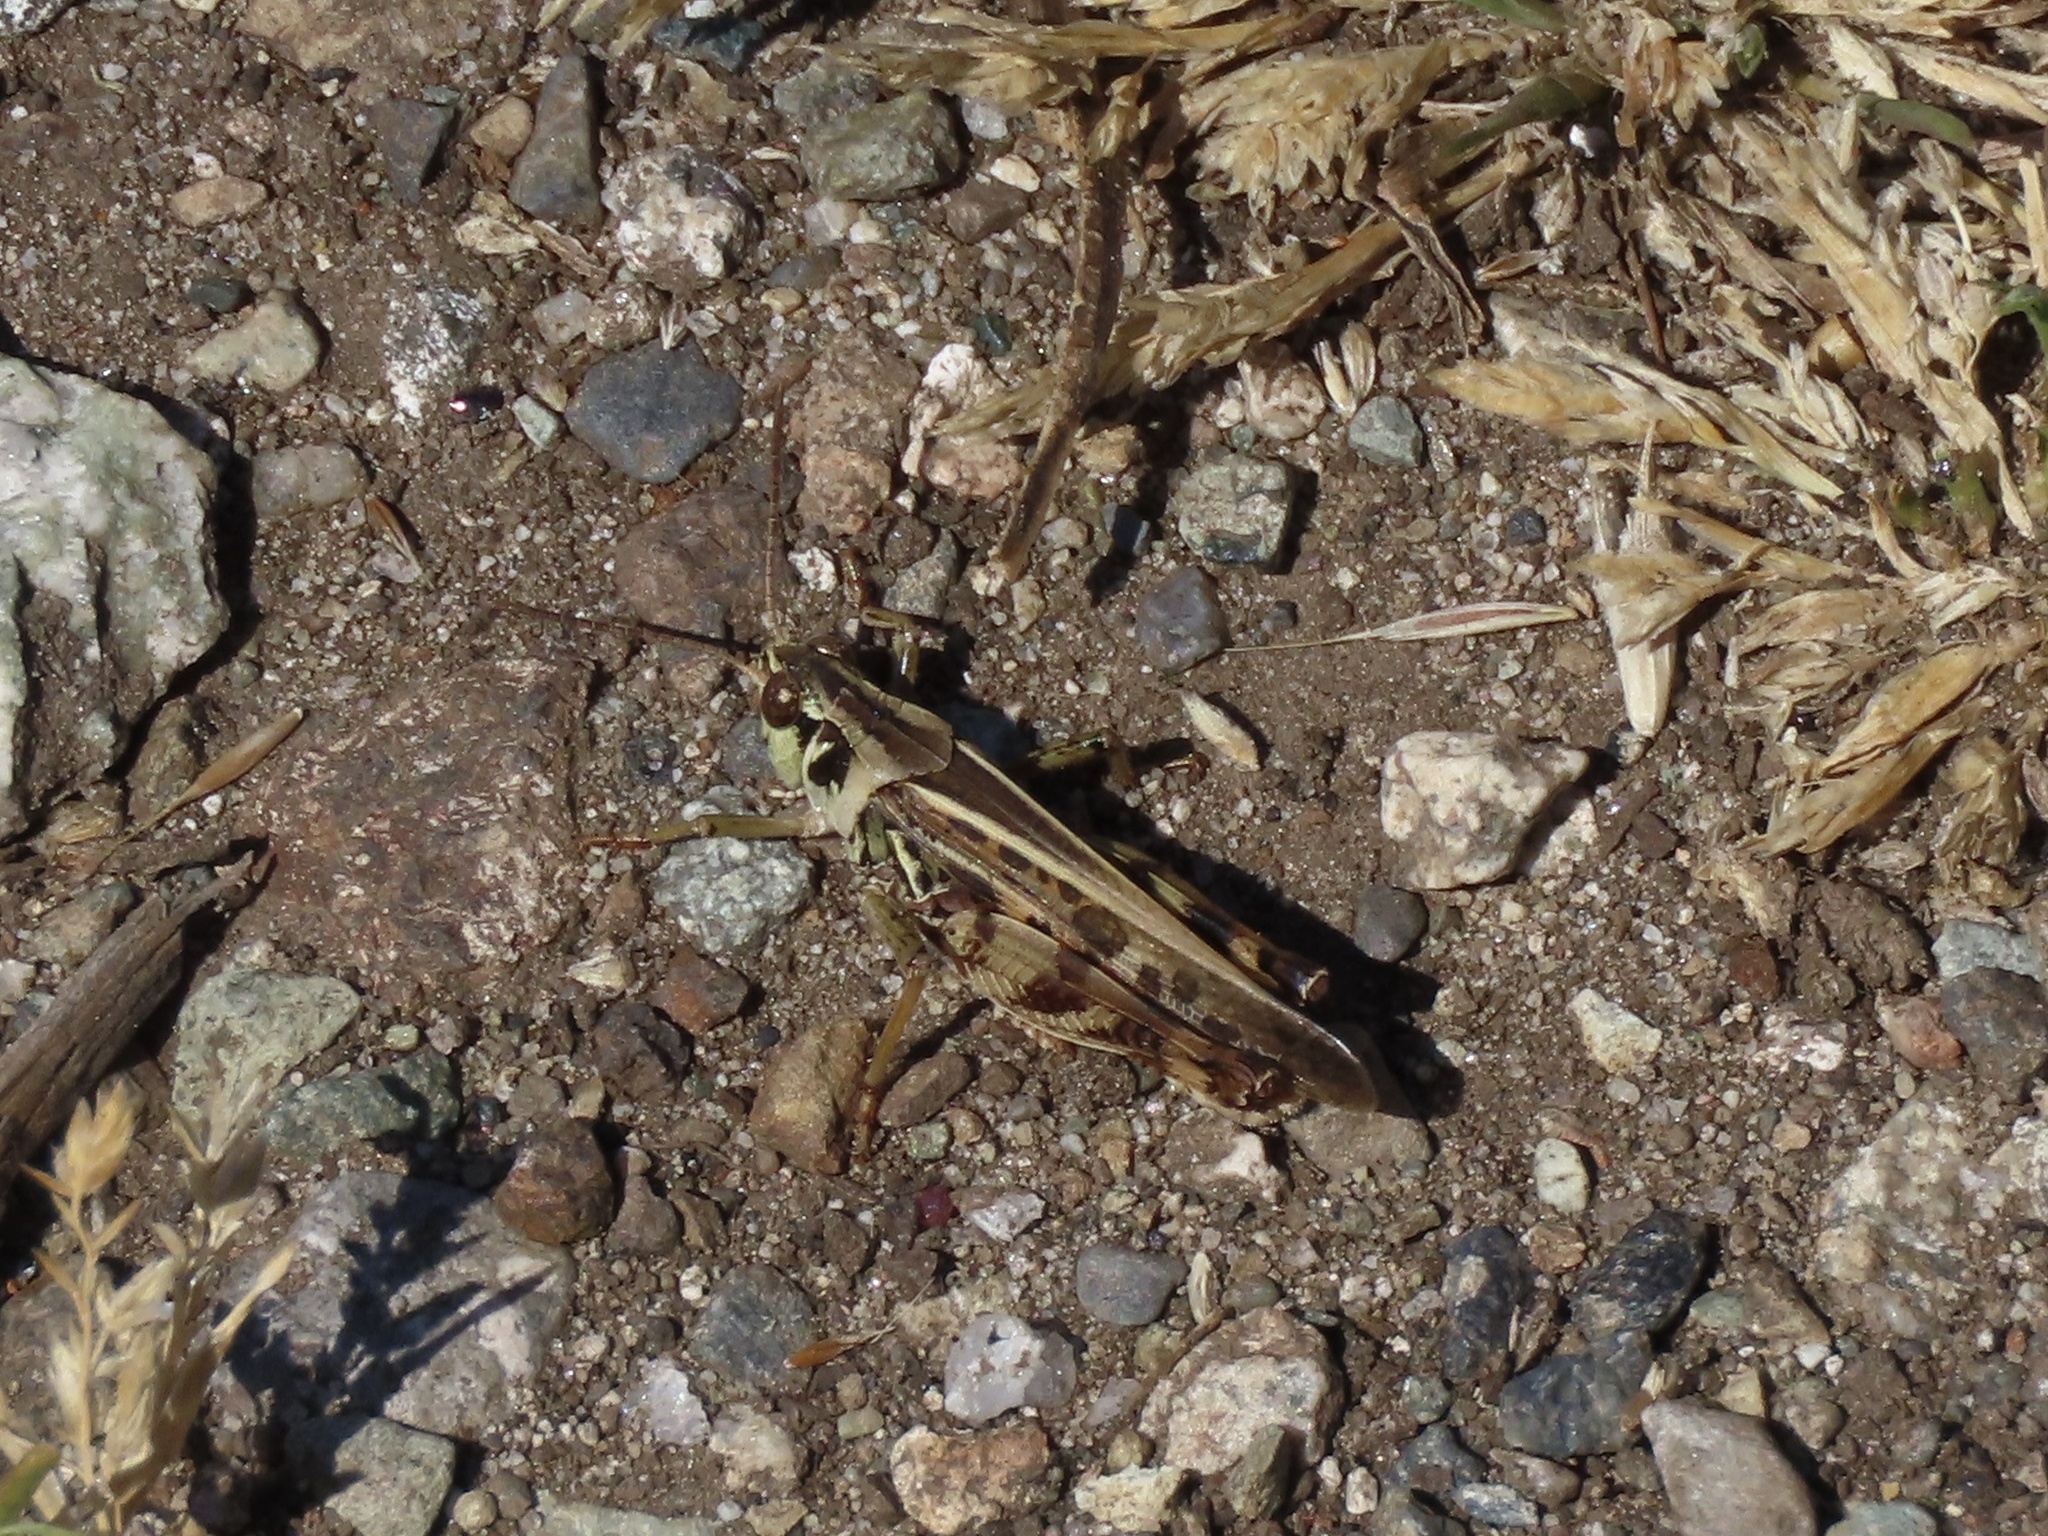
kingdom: Animalia
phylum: Arthropoda
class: Insecta
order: Orthoptera
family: Acrididae
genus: Camnula
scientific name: Camnula pellucida
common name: Clear-winged grasshopper
